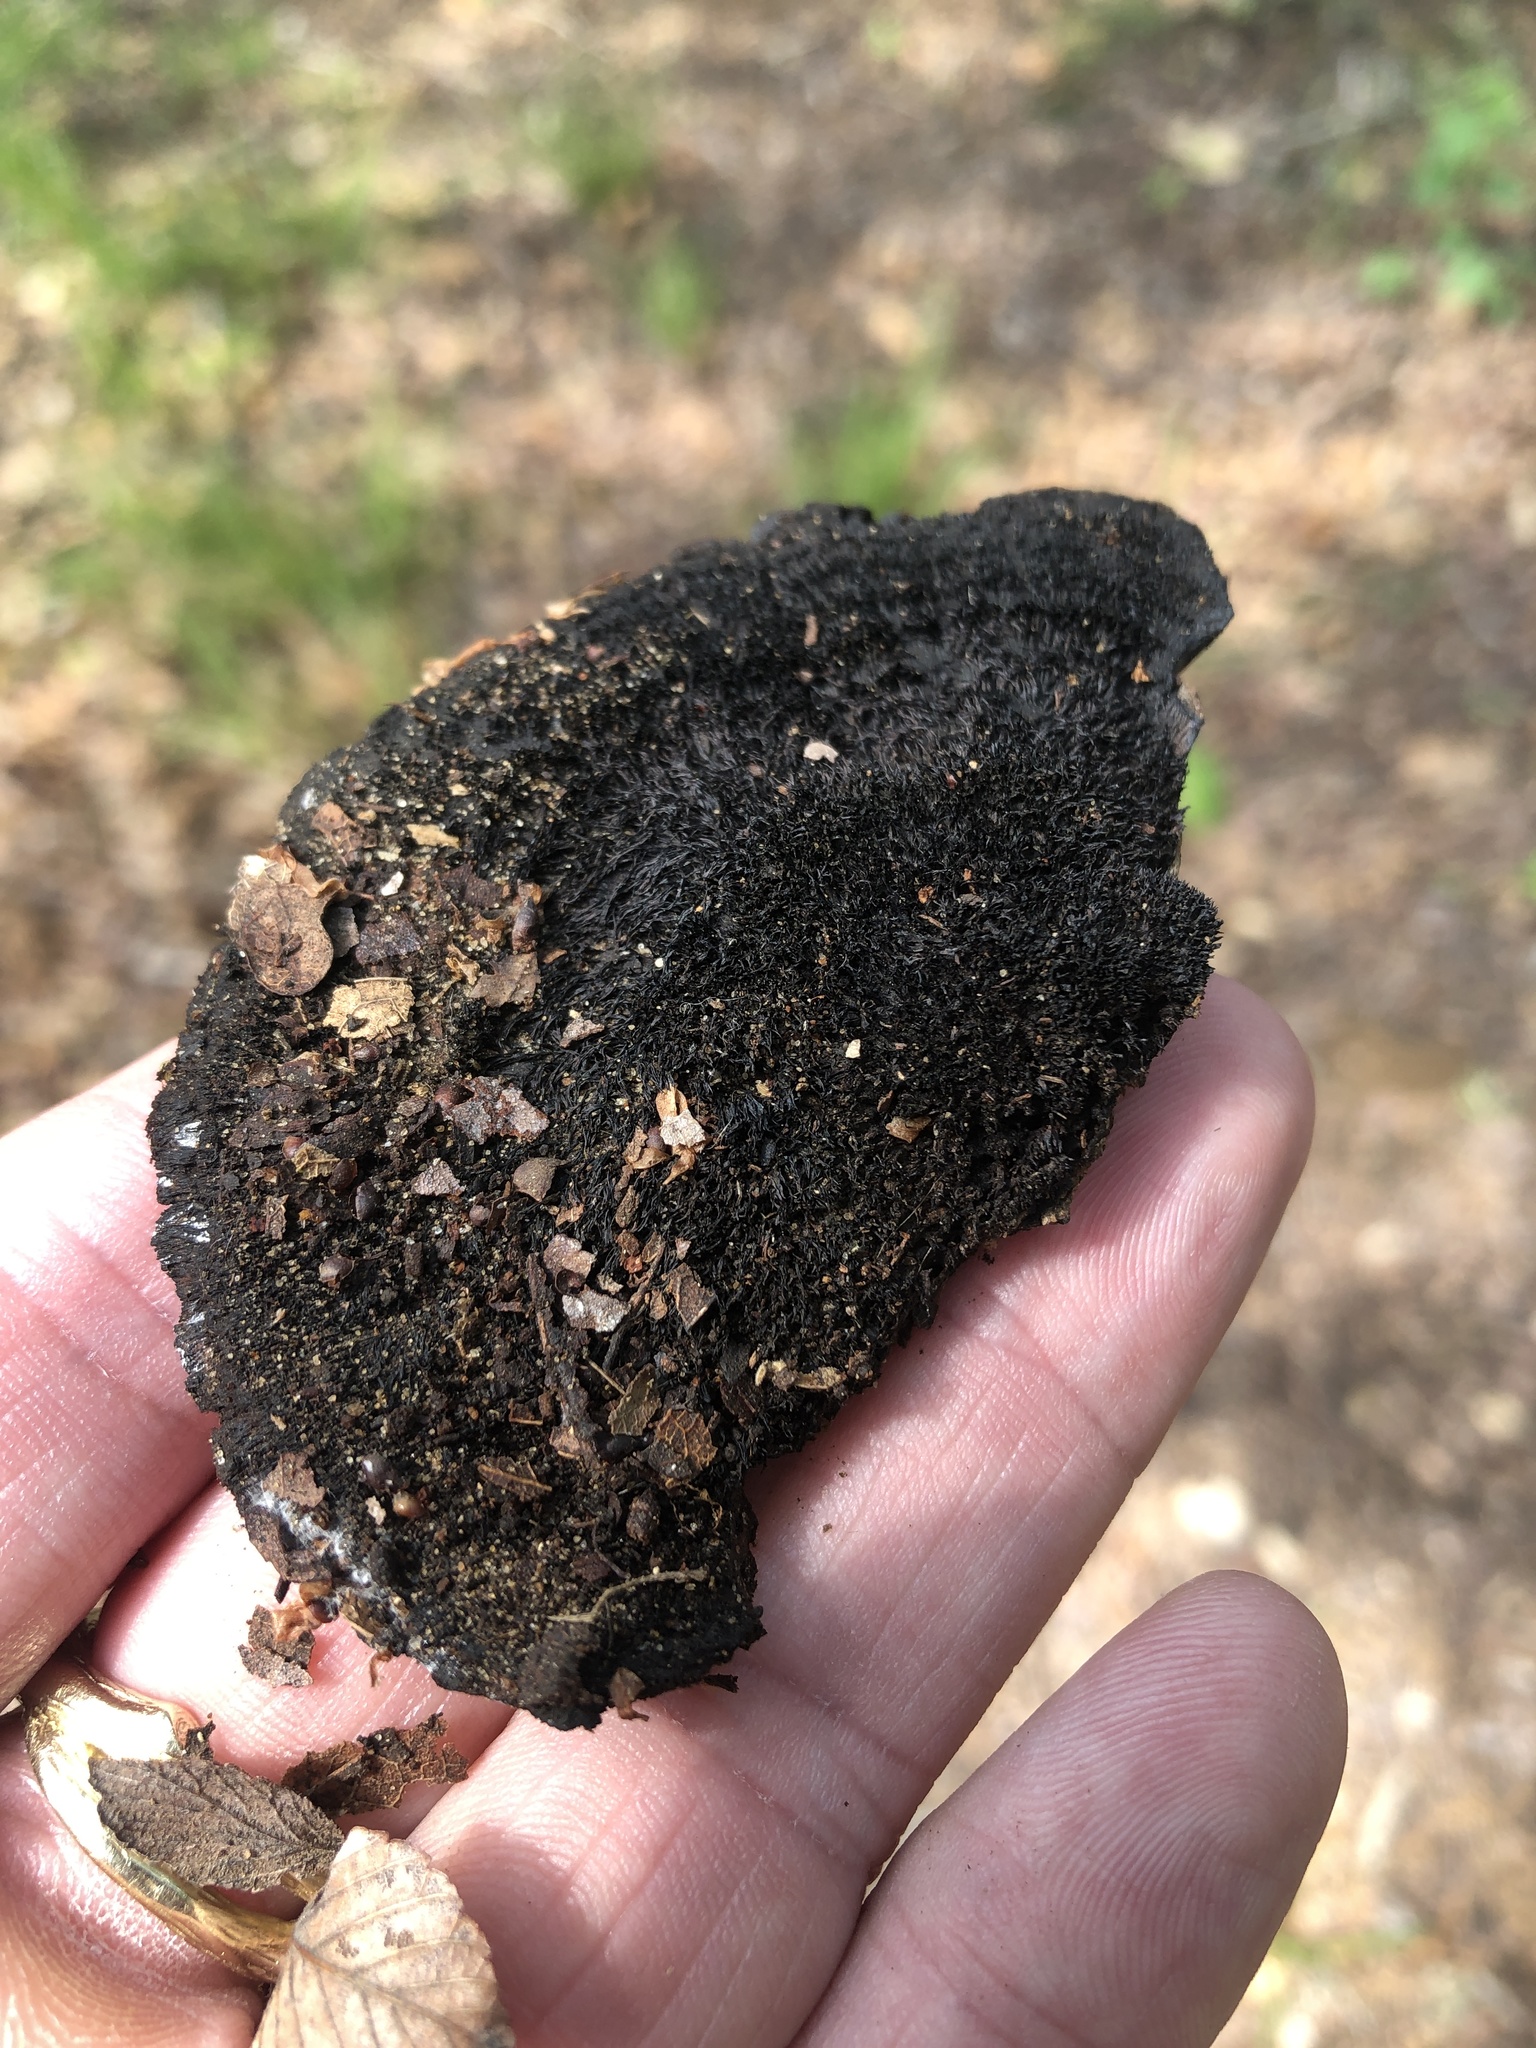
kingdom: Fungi
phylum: Basidiomycota
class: Agaricomycetes
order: Polyporales
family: Cerrenaceae
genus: Cerrena
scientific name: Cerrena hydnoides
